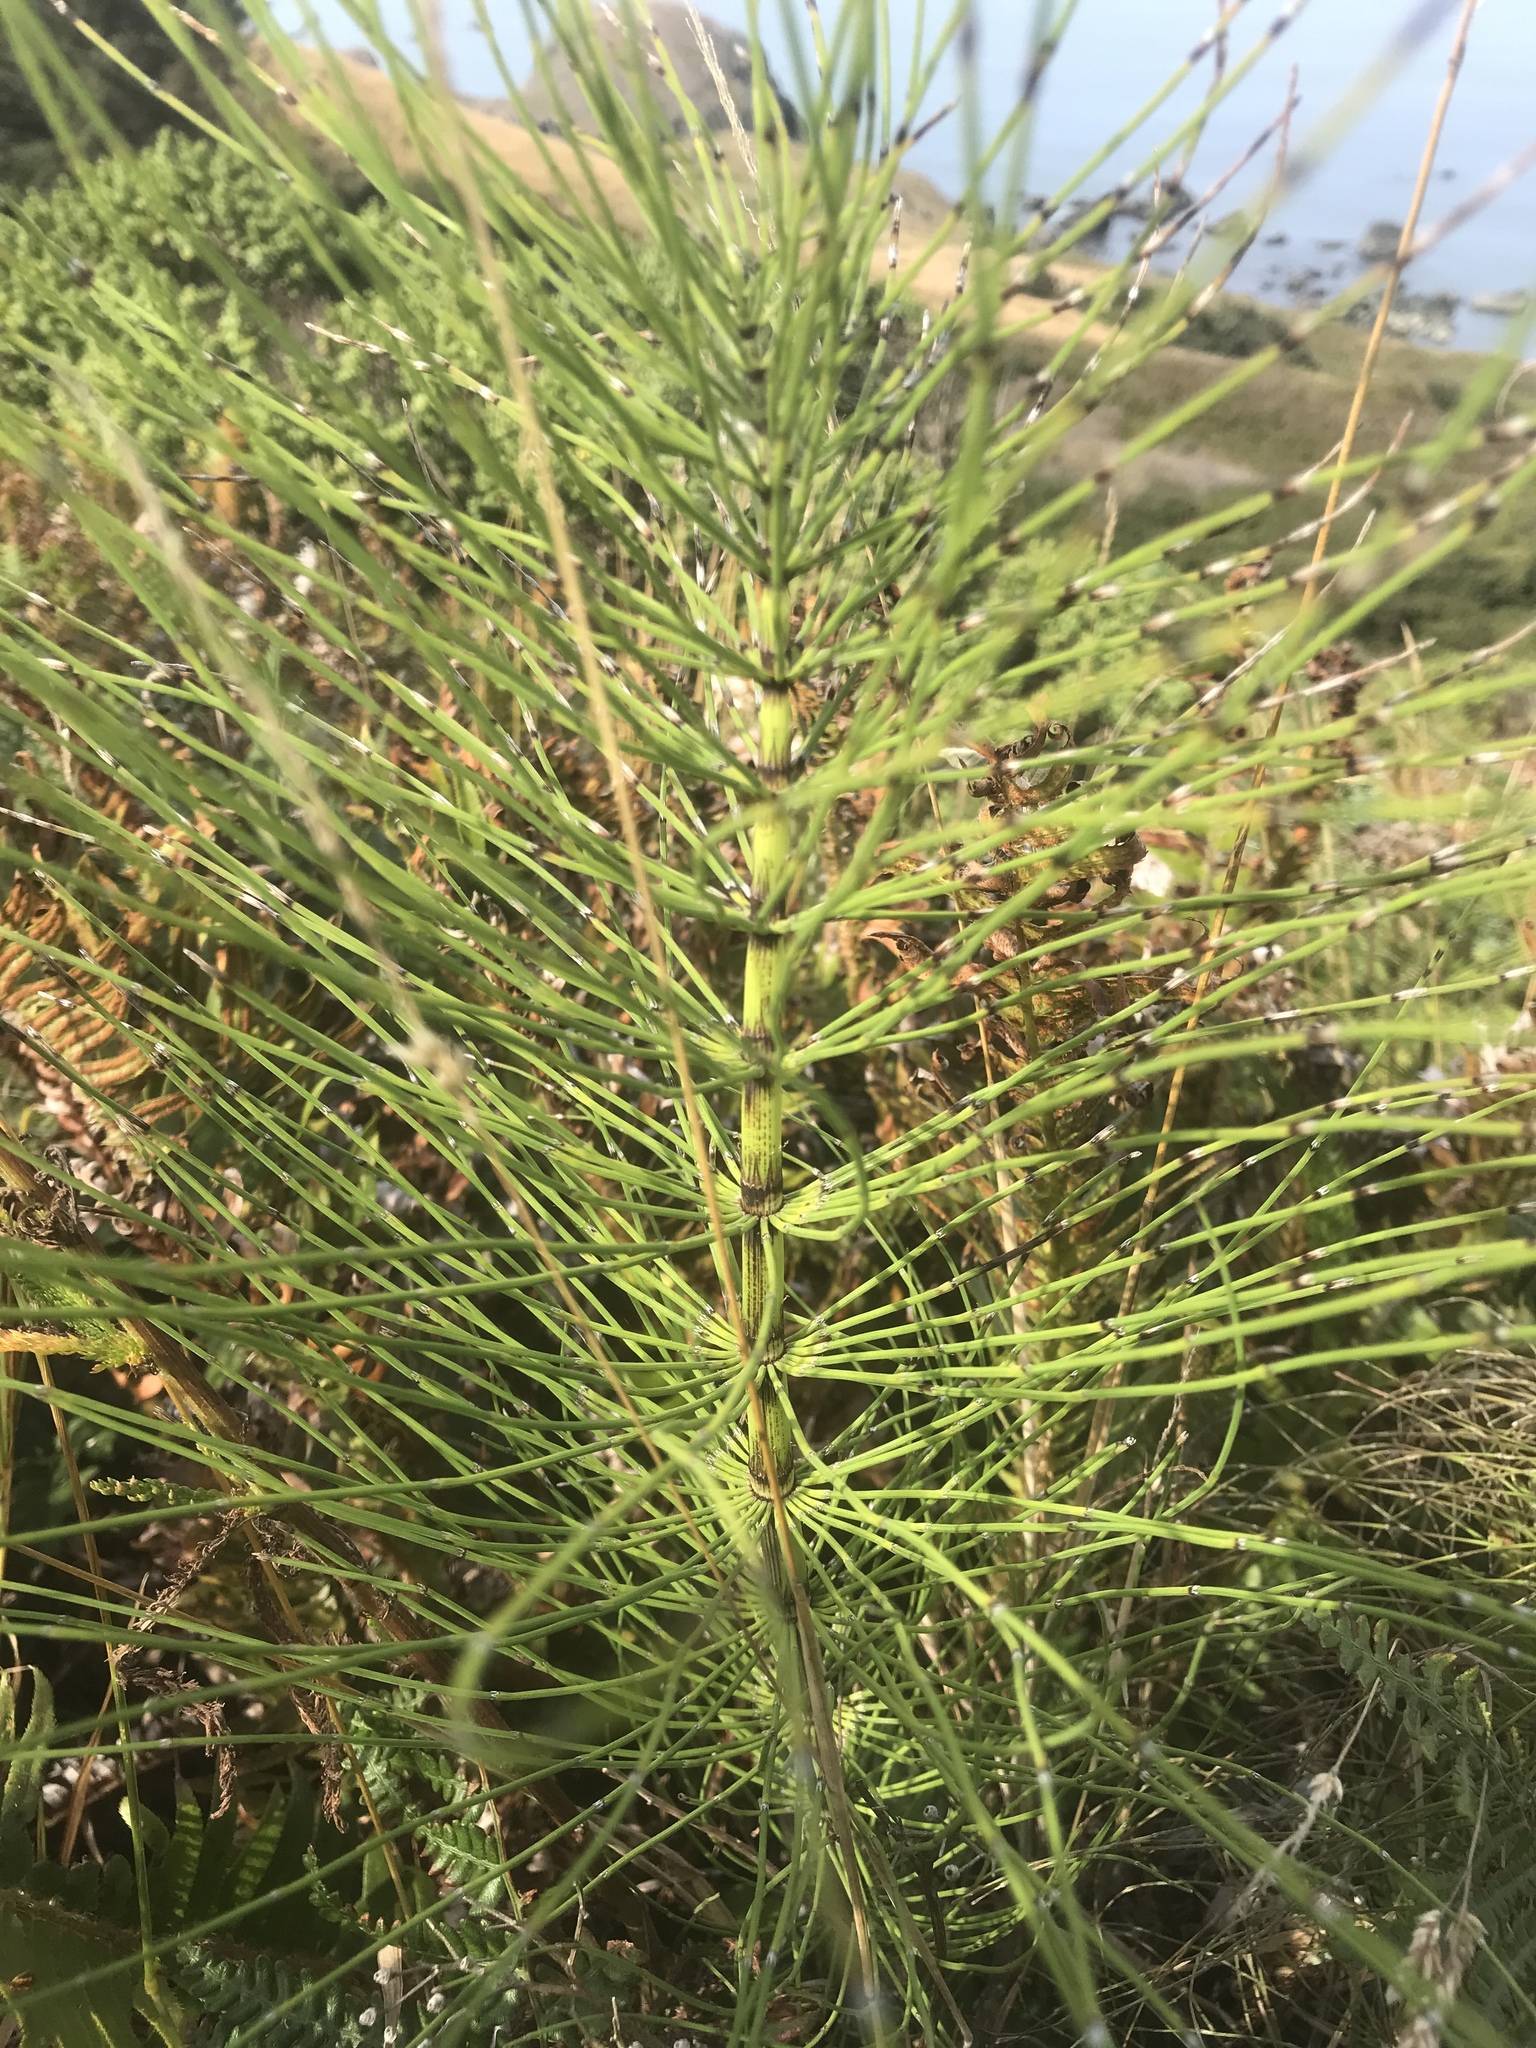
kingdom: Plantae
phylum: Tracheophyta
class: Polypodiopsida
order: Equisetales
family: Equisetaceae
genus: Equisetum
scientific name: Equisetum telmateia
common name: Great horsetail
